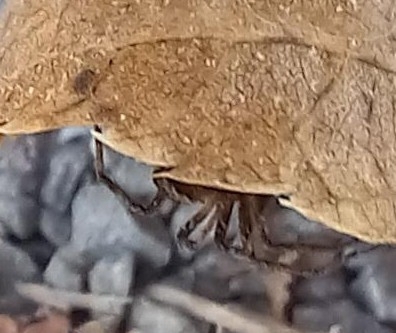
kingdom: Animalia
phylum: Arthropoda
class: Arachnida
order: Araneae
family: Pisauridae
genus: Pisaura
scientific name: Pisaura mirabilis
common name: Tent spider
